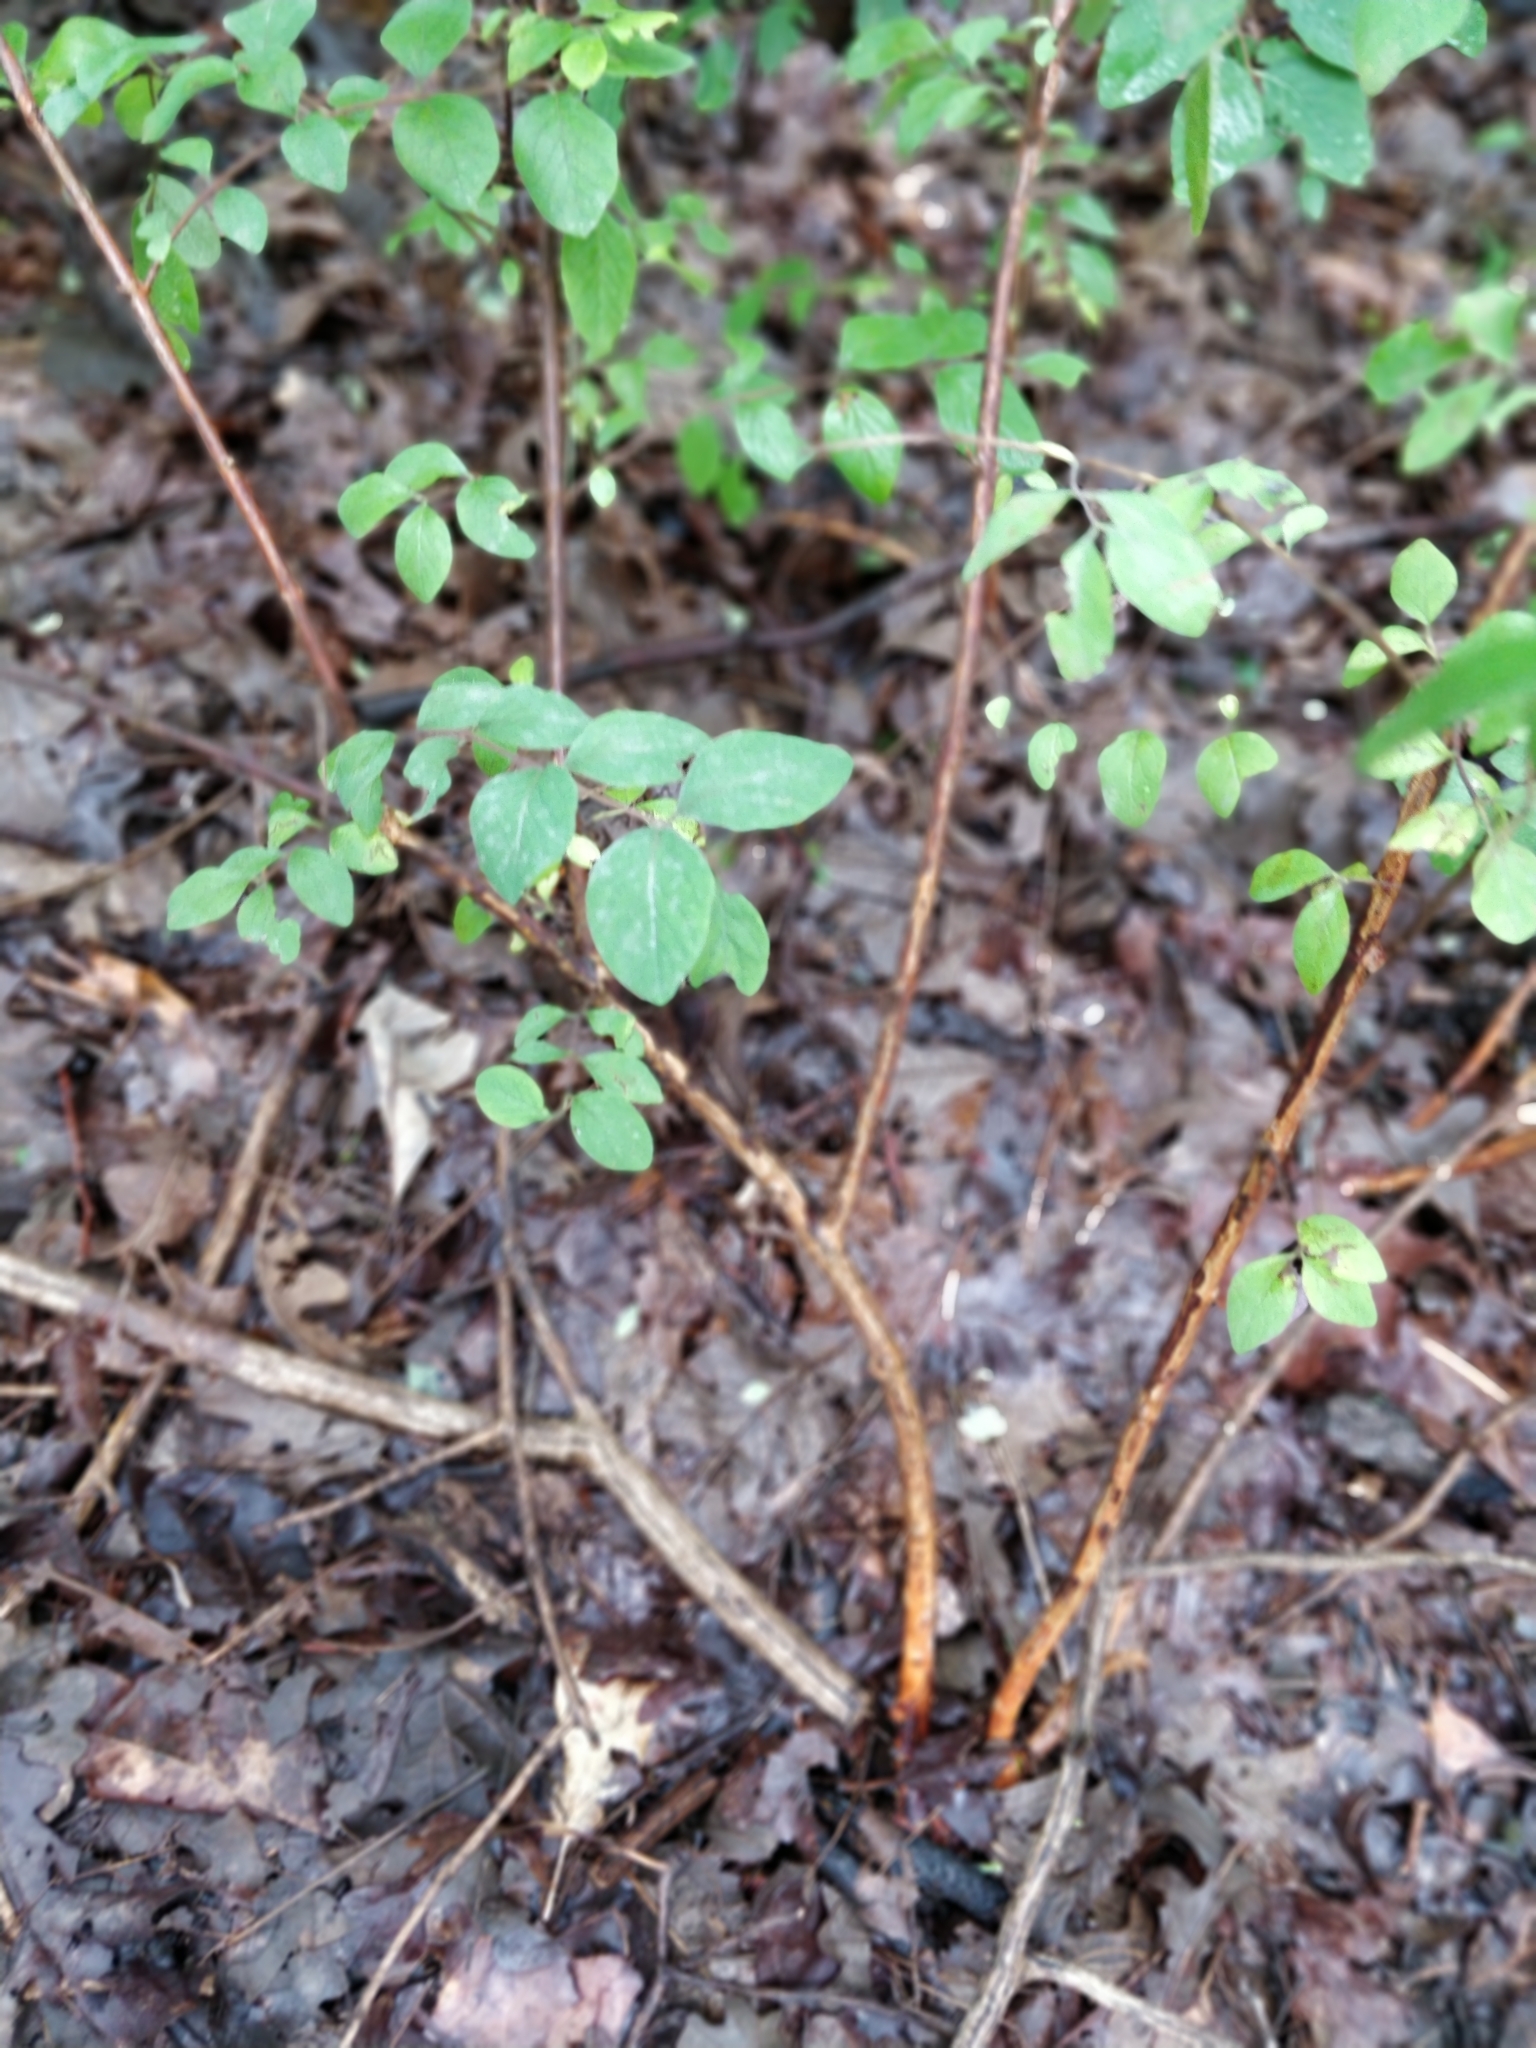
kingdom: Plantae
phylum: Tracheophyta
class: Magnoliopsida
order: Dipsacales
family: Caprifoliaceae
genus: Symphoricarpos
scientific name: Symphoricarpos orbiculatus
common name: Coralberry
